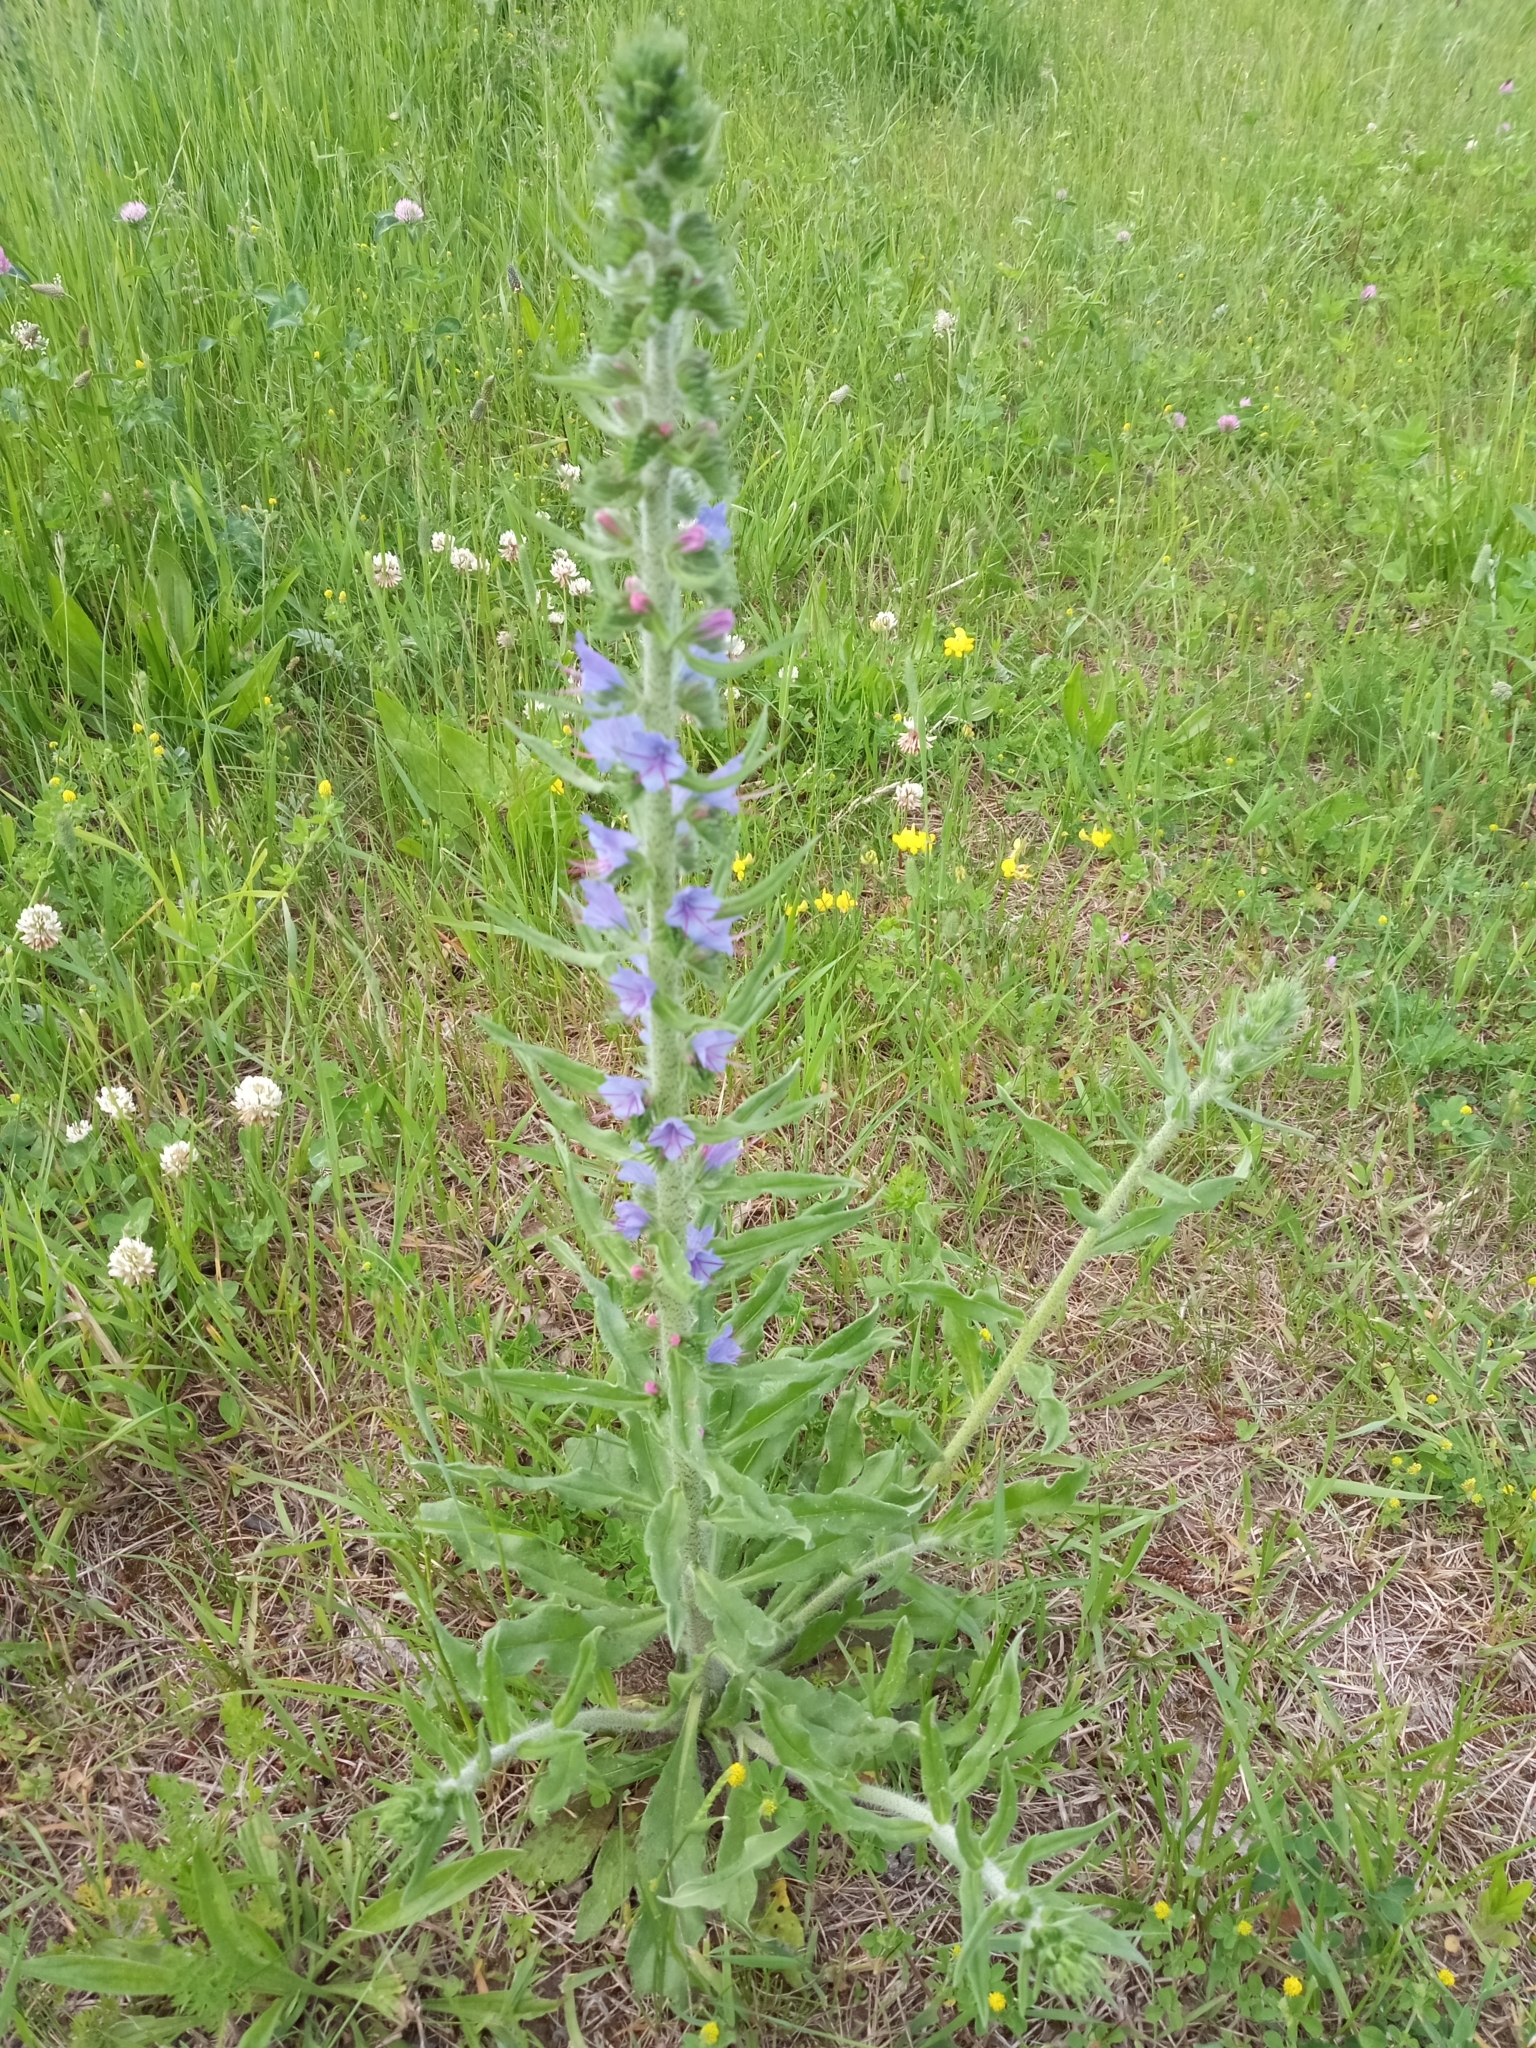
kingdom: Plantae
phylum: Tracheophyta
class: Magnoliopsida
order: Boraginales
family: Boraginaceae
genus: Echium
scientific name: Echium vulgare
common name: Common viper's bugloss
